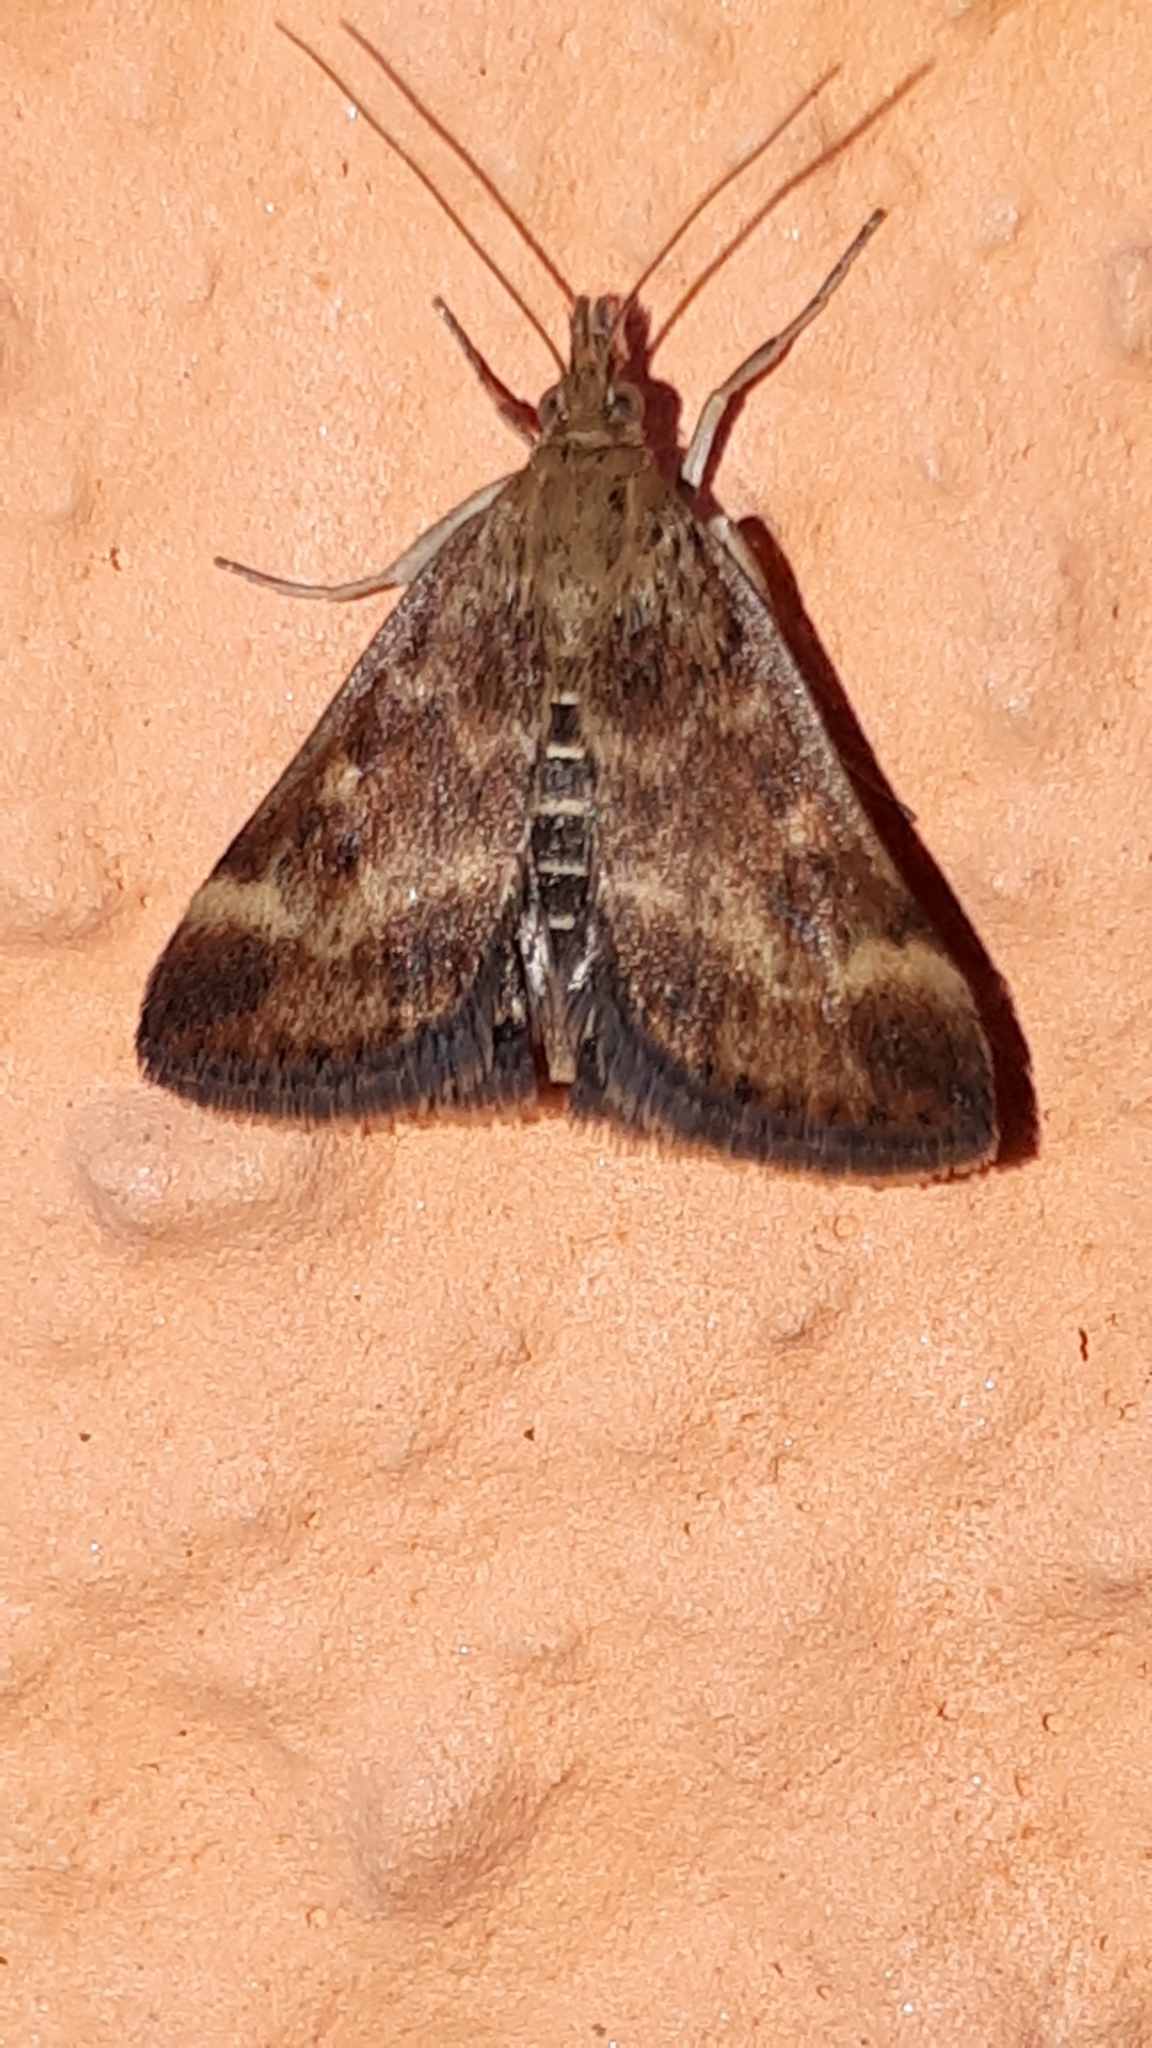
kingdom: Animalia
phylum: Arthropoda
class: Insecta
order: Lepidoptera
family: Crambidae
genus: Pyrausta
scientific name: Pyrausta despicata
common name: Straw-barred pearl
